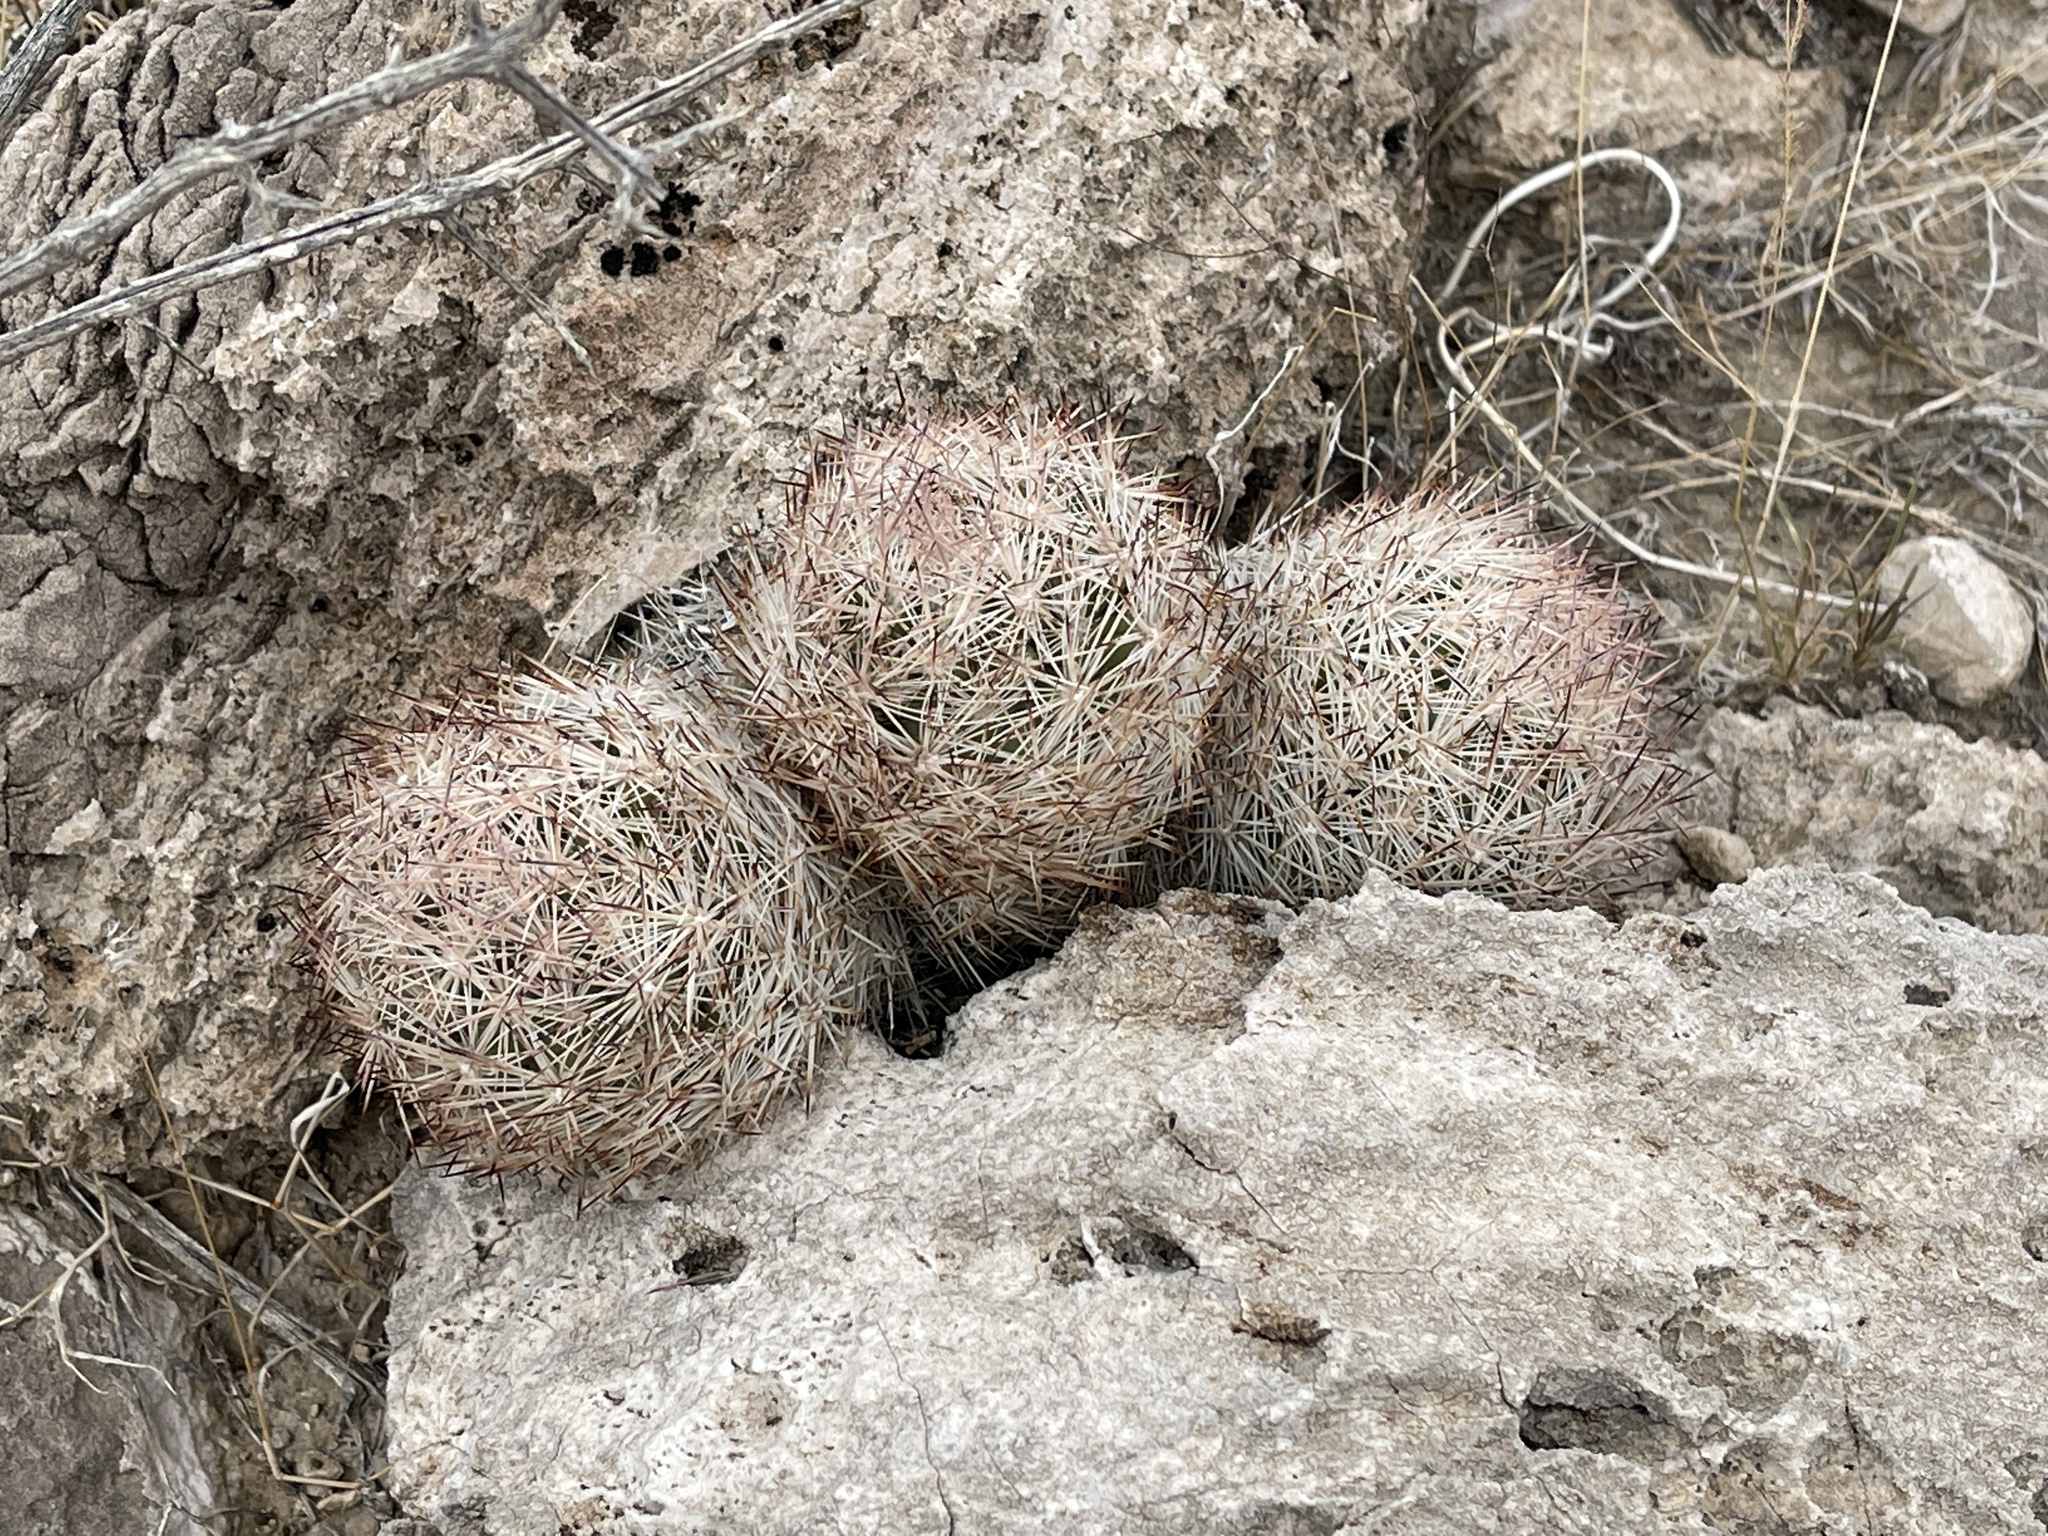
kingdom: Plantae
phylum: Tracheophyta
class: Magnoliopsida
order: Caryophyllales
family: Cactaceae
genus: Pelecyphora
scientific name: Pelecyphora dasyacantha
